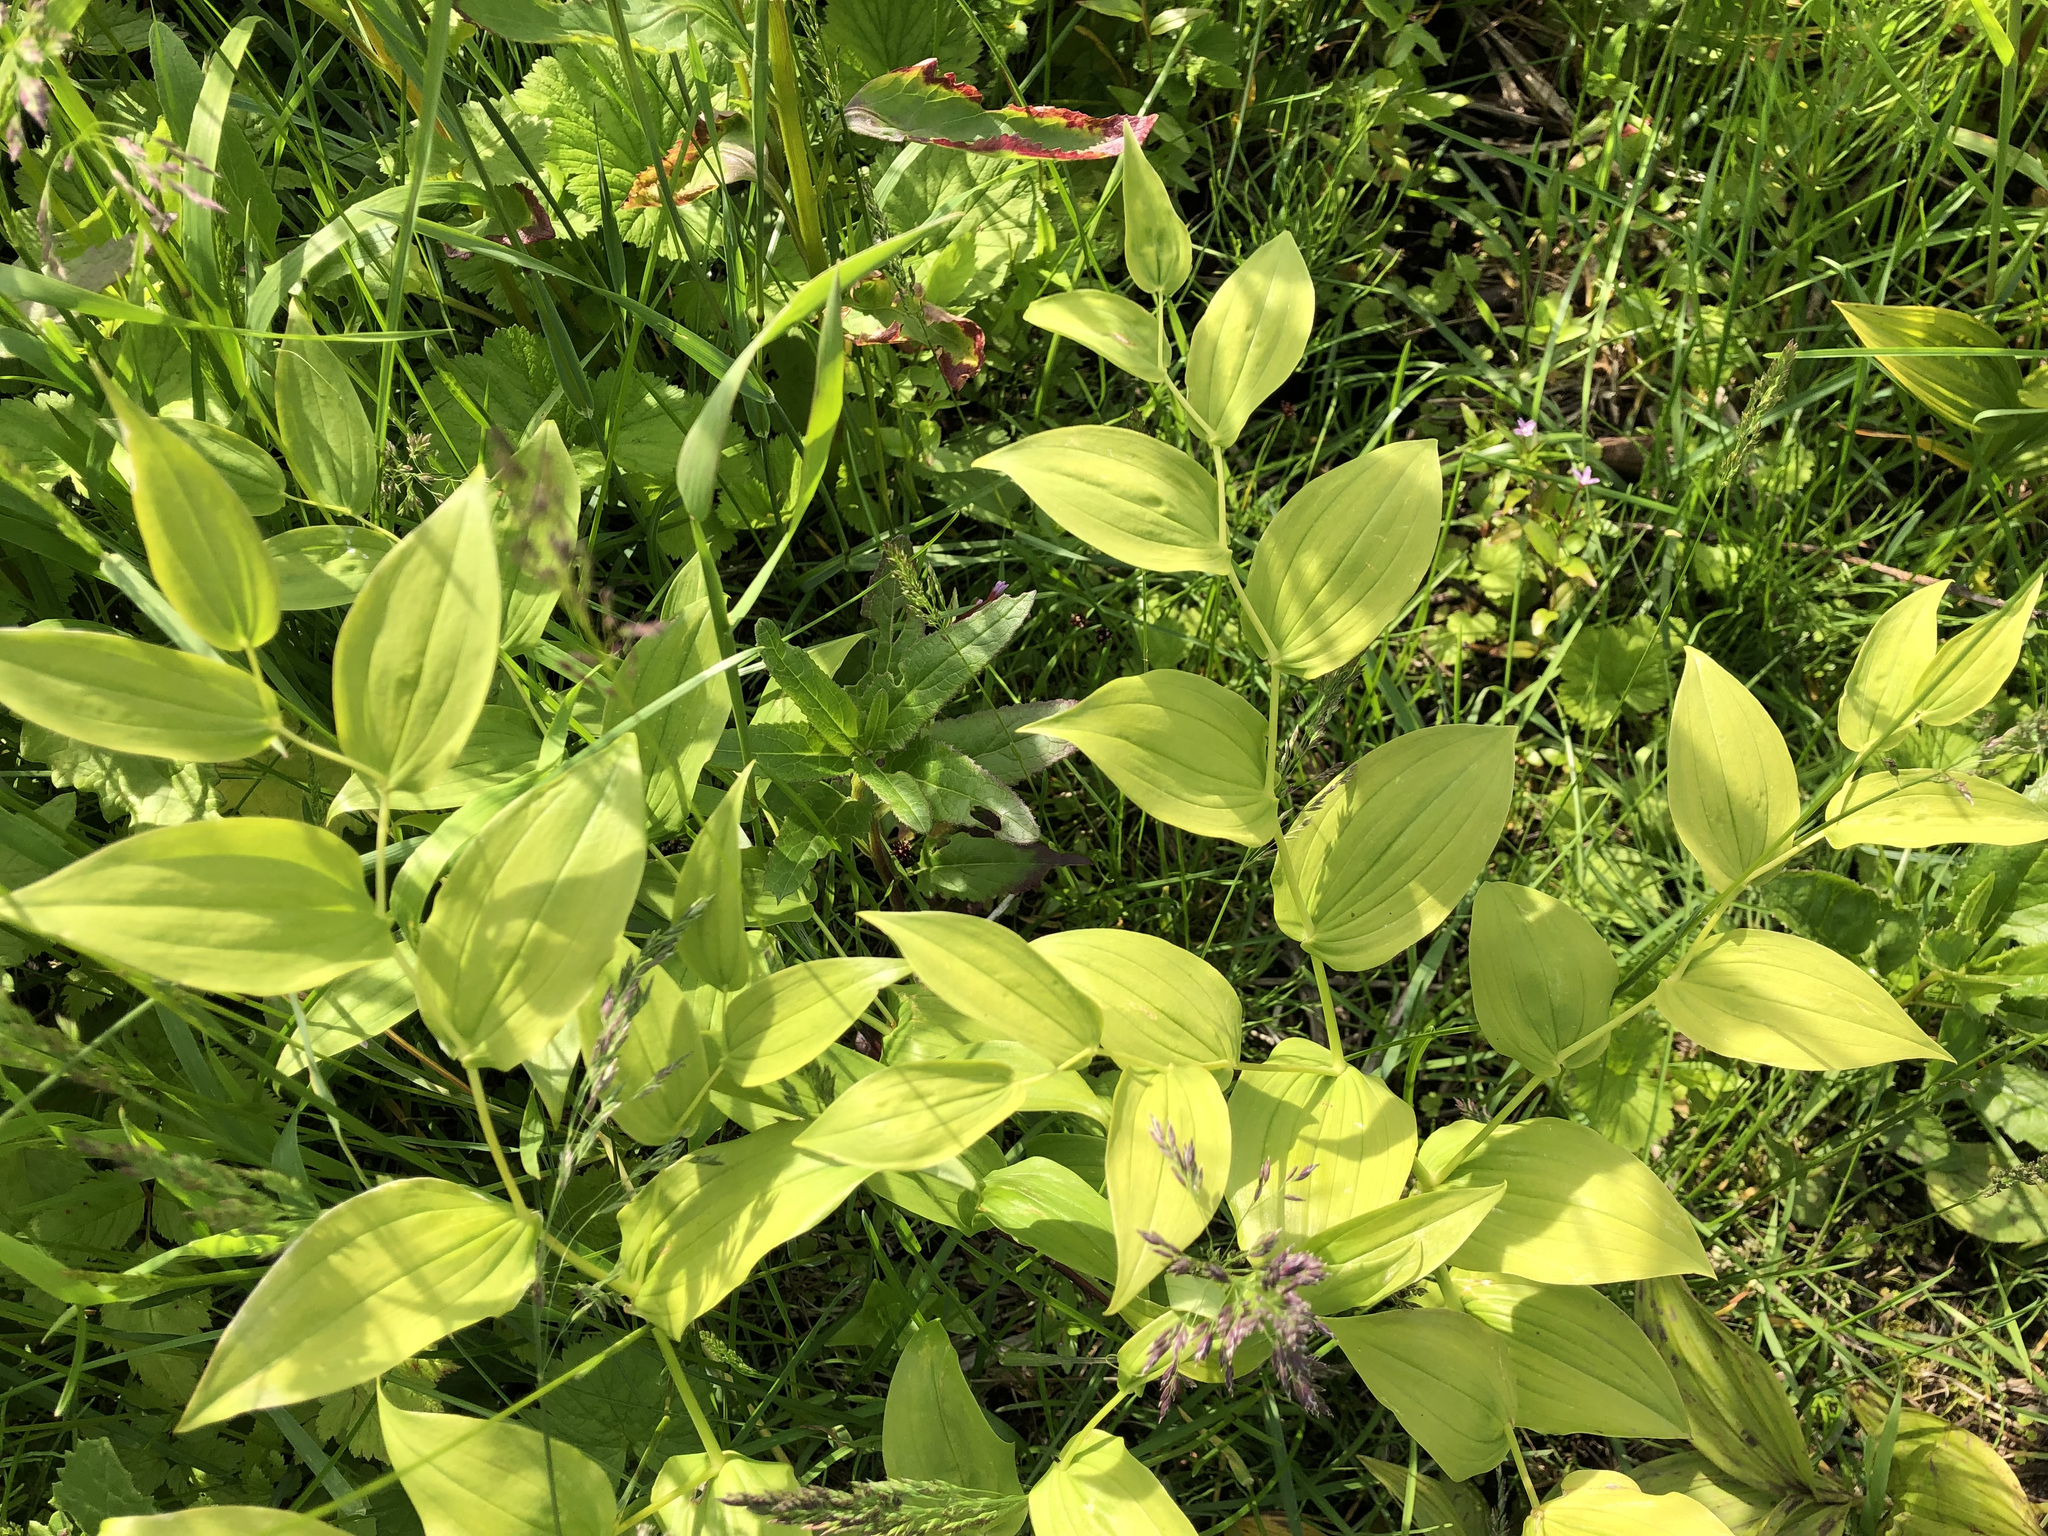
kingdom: Plantae
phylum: Tracheophyta
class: Liliopsida
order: Liliales
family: Liliaceae
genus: Streptopus
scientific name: Streptopus amplexifolius
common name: Clasp twisted stalk
